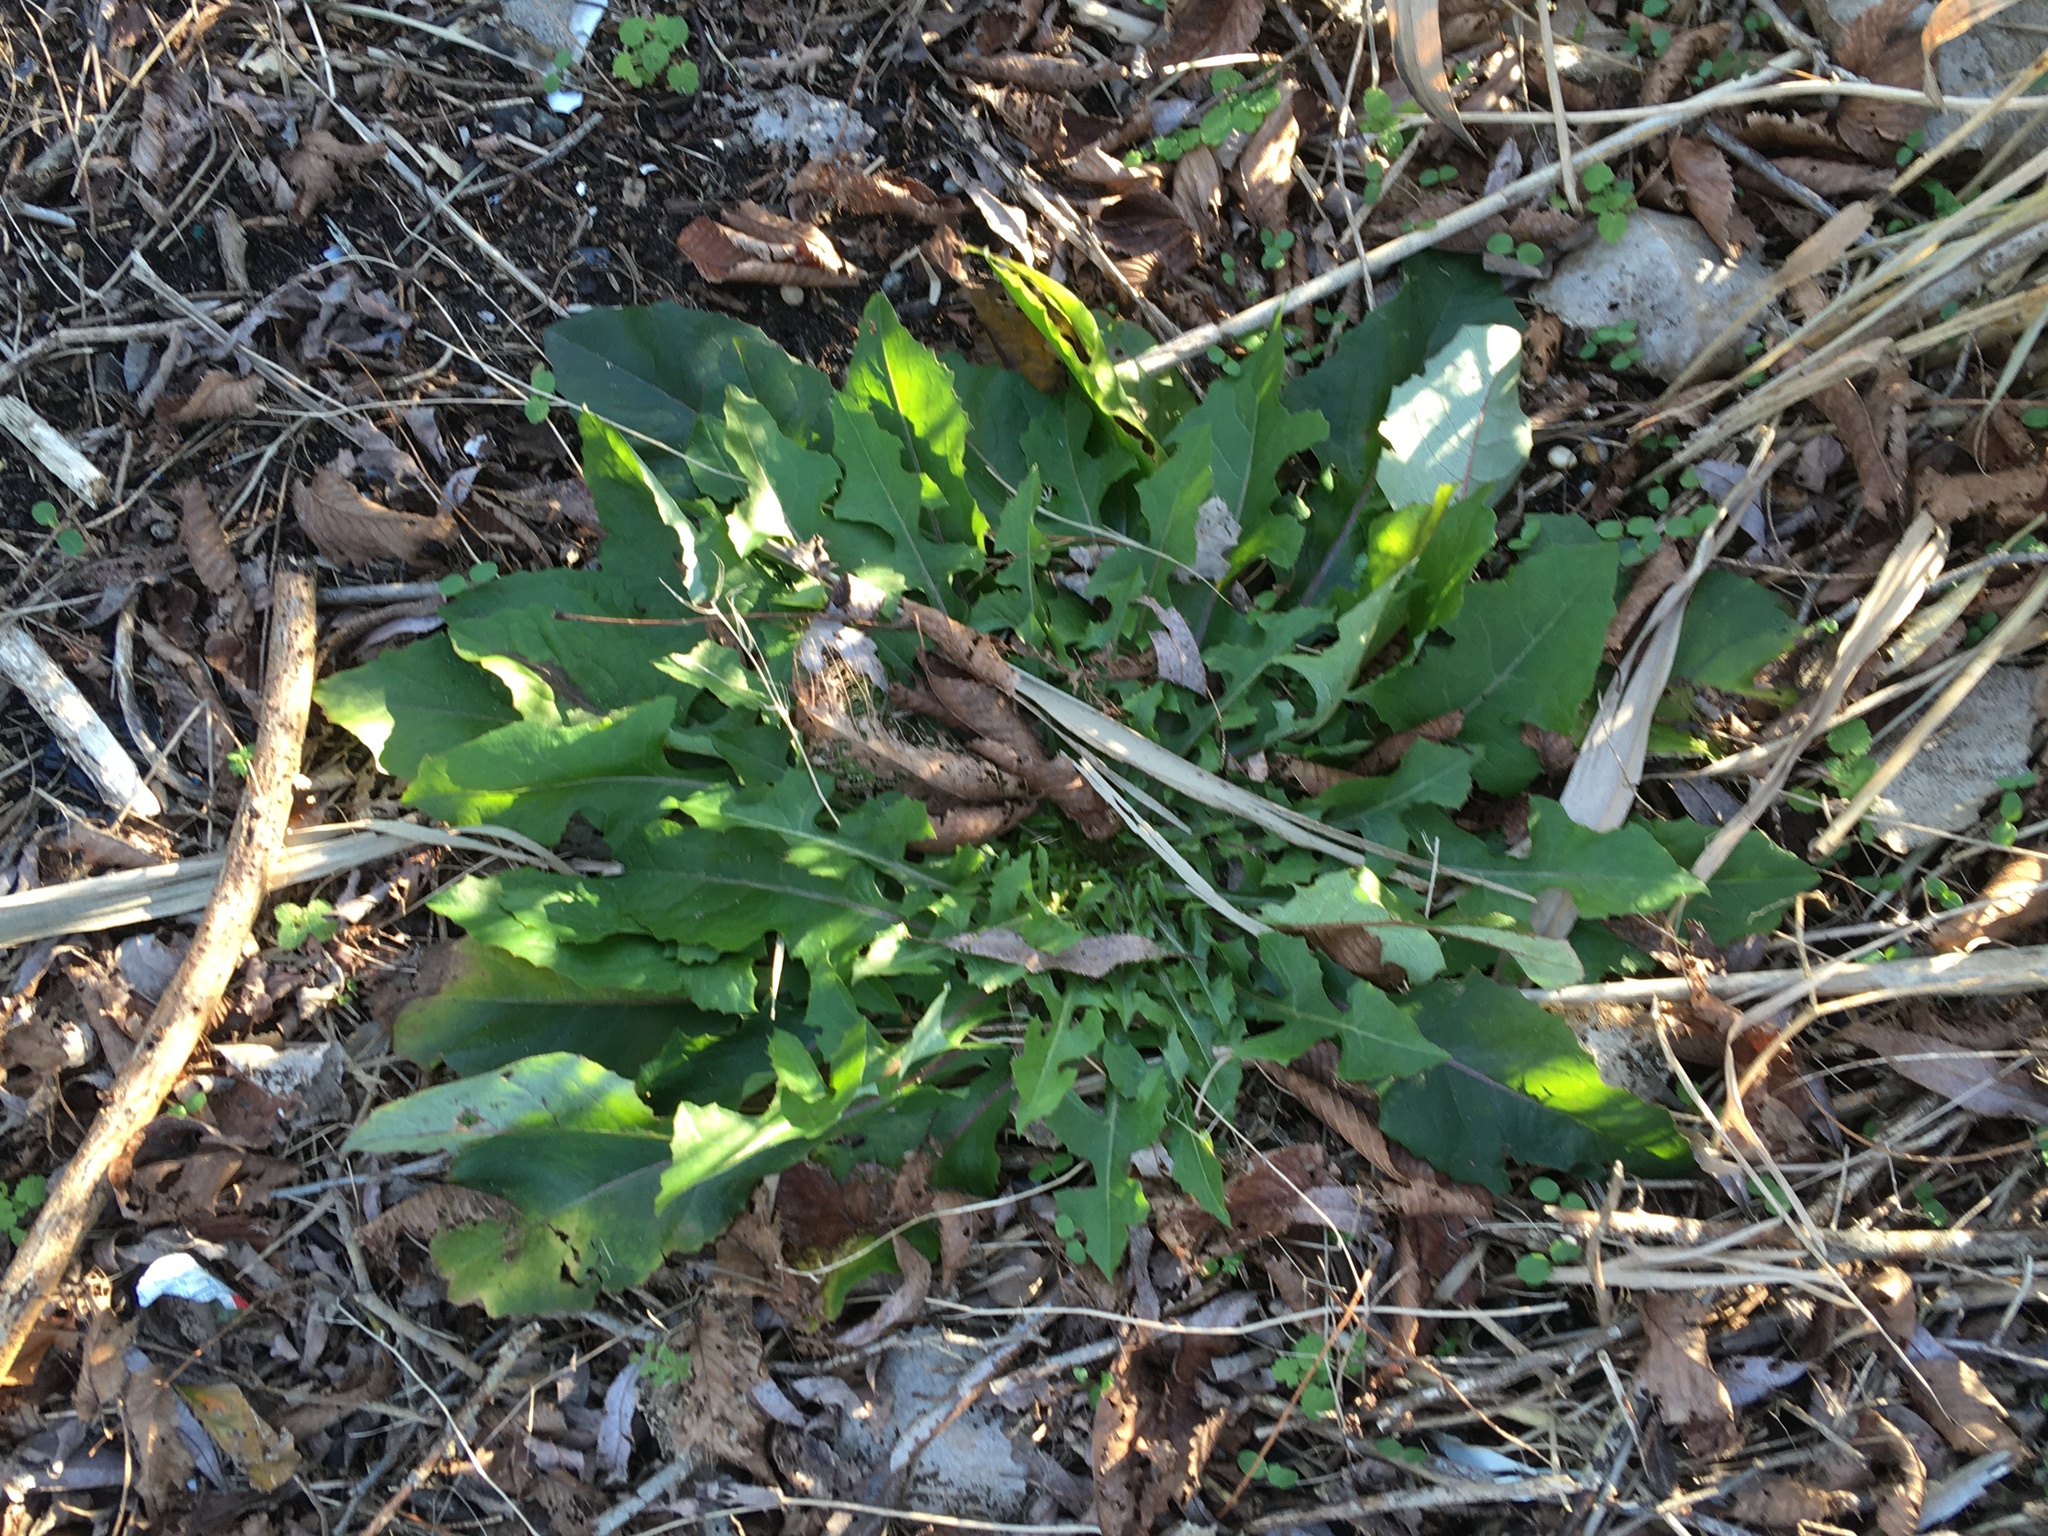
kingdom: Plantae
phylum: Tracheophyta
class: Magnoliopsida
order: Asterales
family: Asteraceae
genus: Taraxacum
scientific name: Taraxacum officinale
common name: Common dandelion
